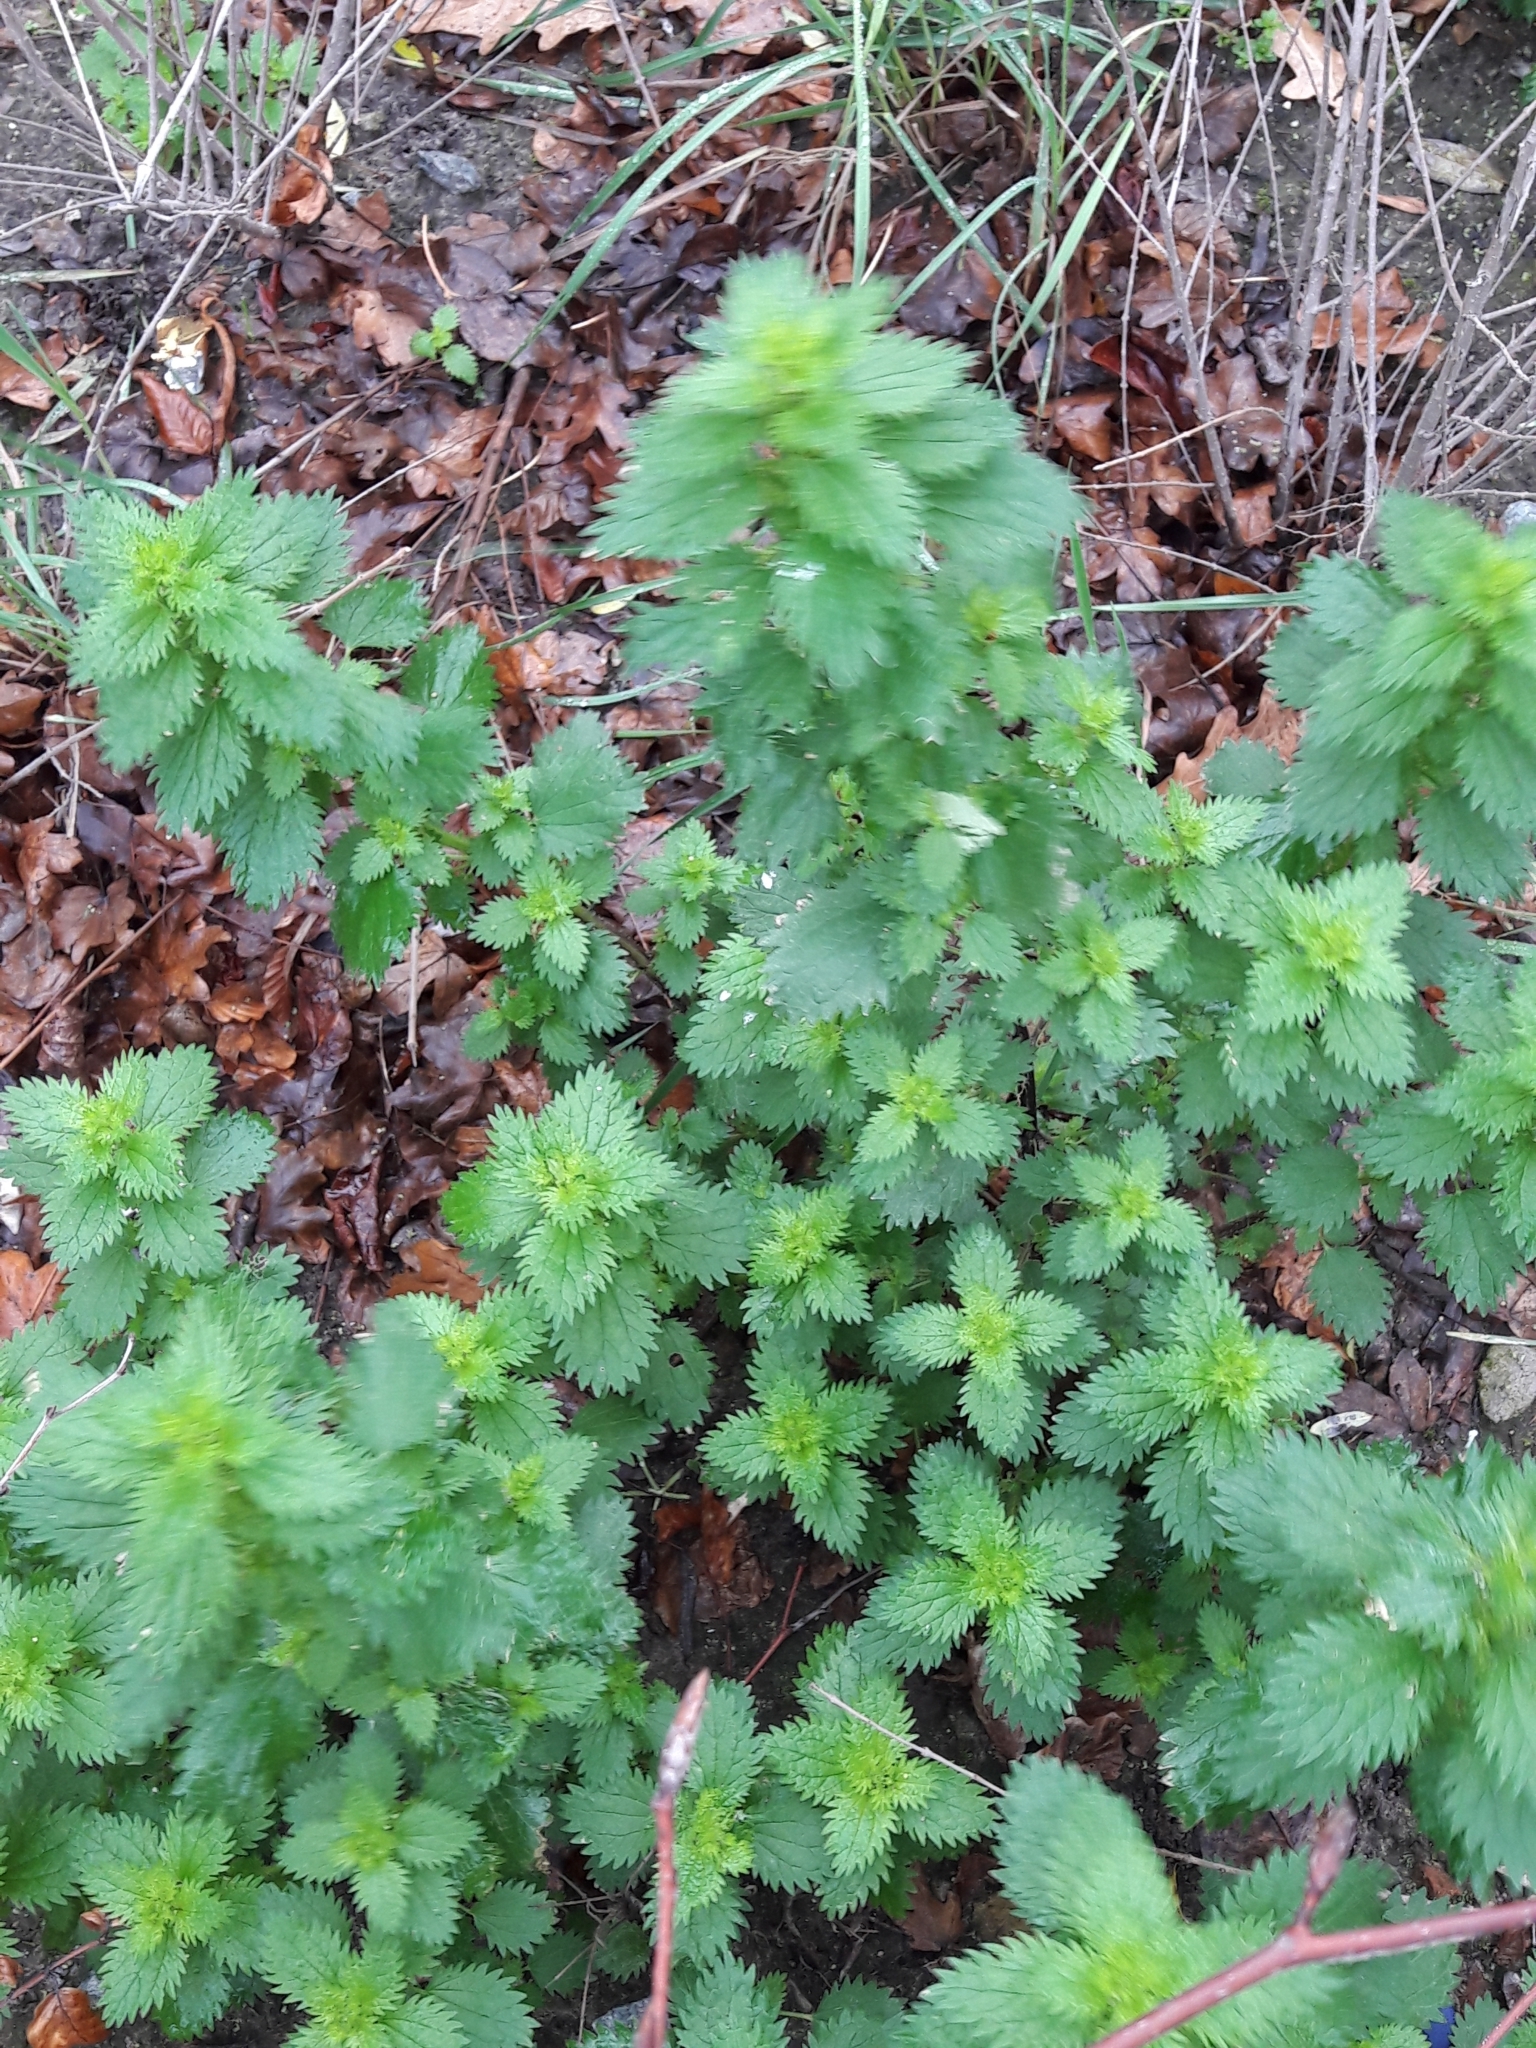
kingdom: Plantae
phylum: Tracheophyta
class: Magnoliopsida
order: Rosales
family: Urticaceae
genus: Urtica
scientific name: Urtica urens
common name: Dwarf nettle
